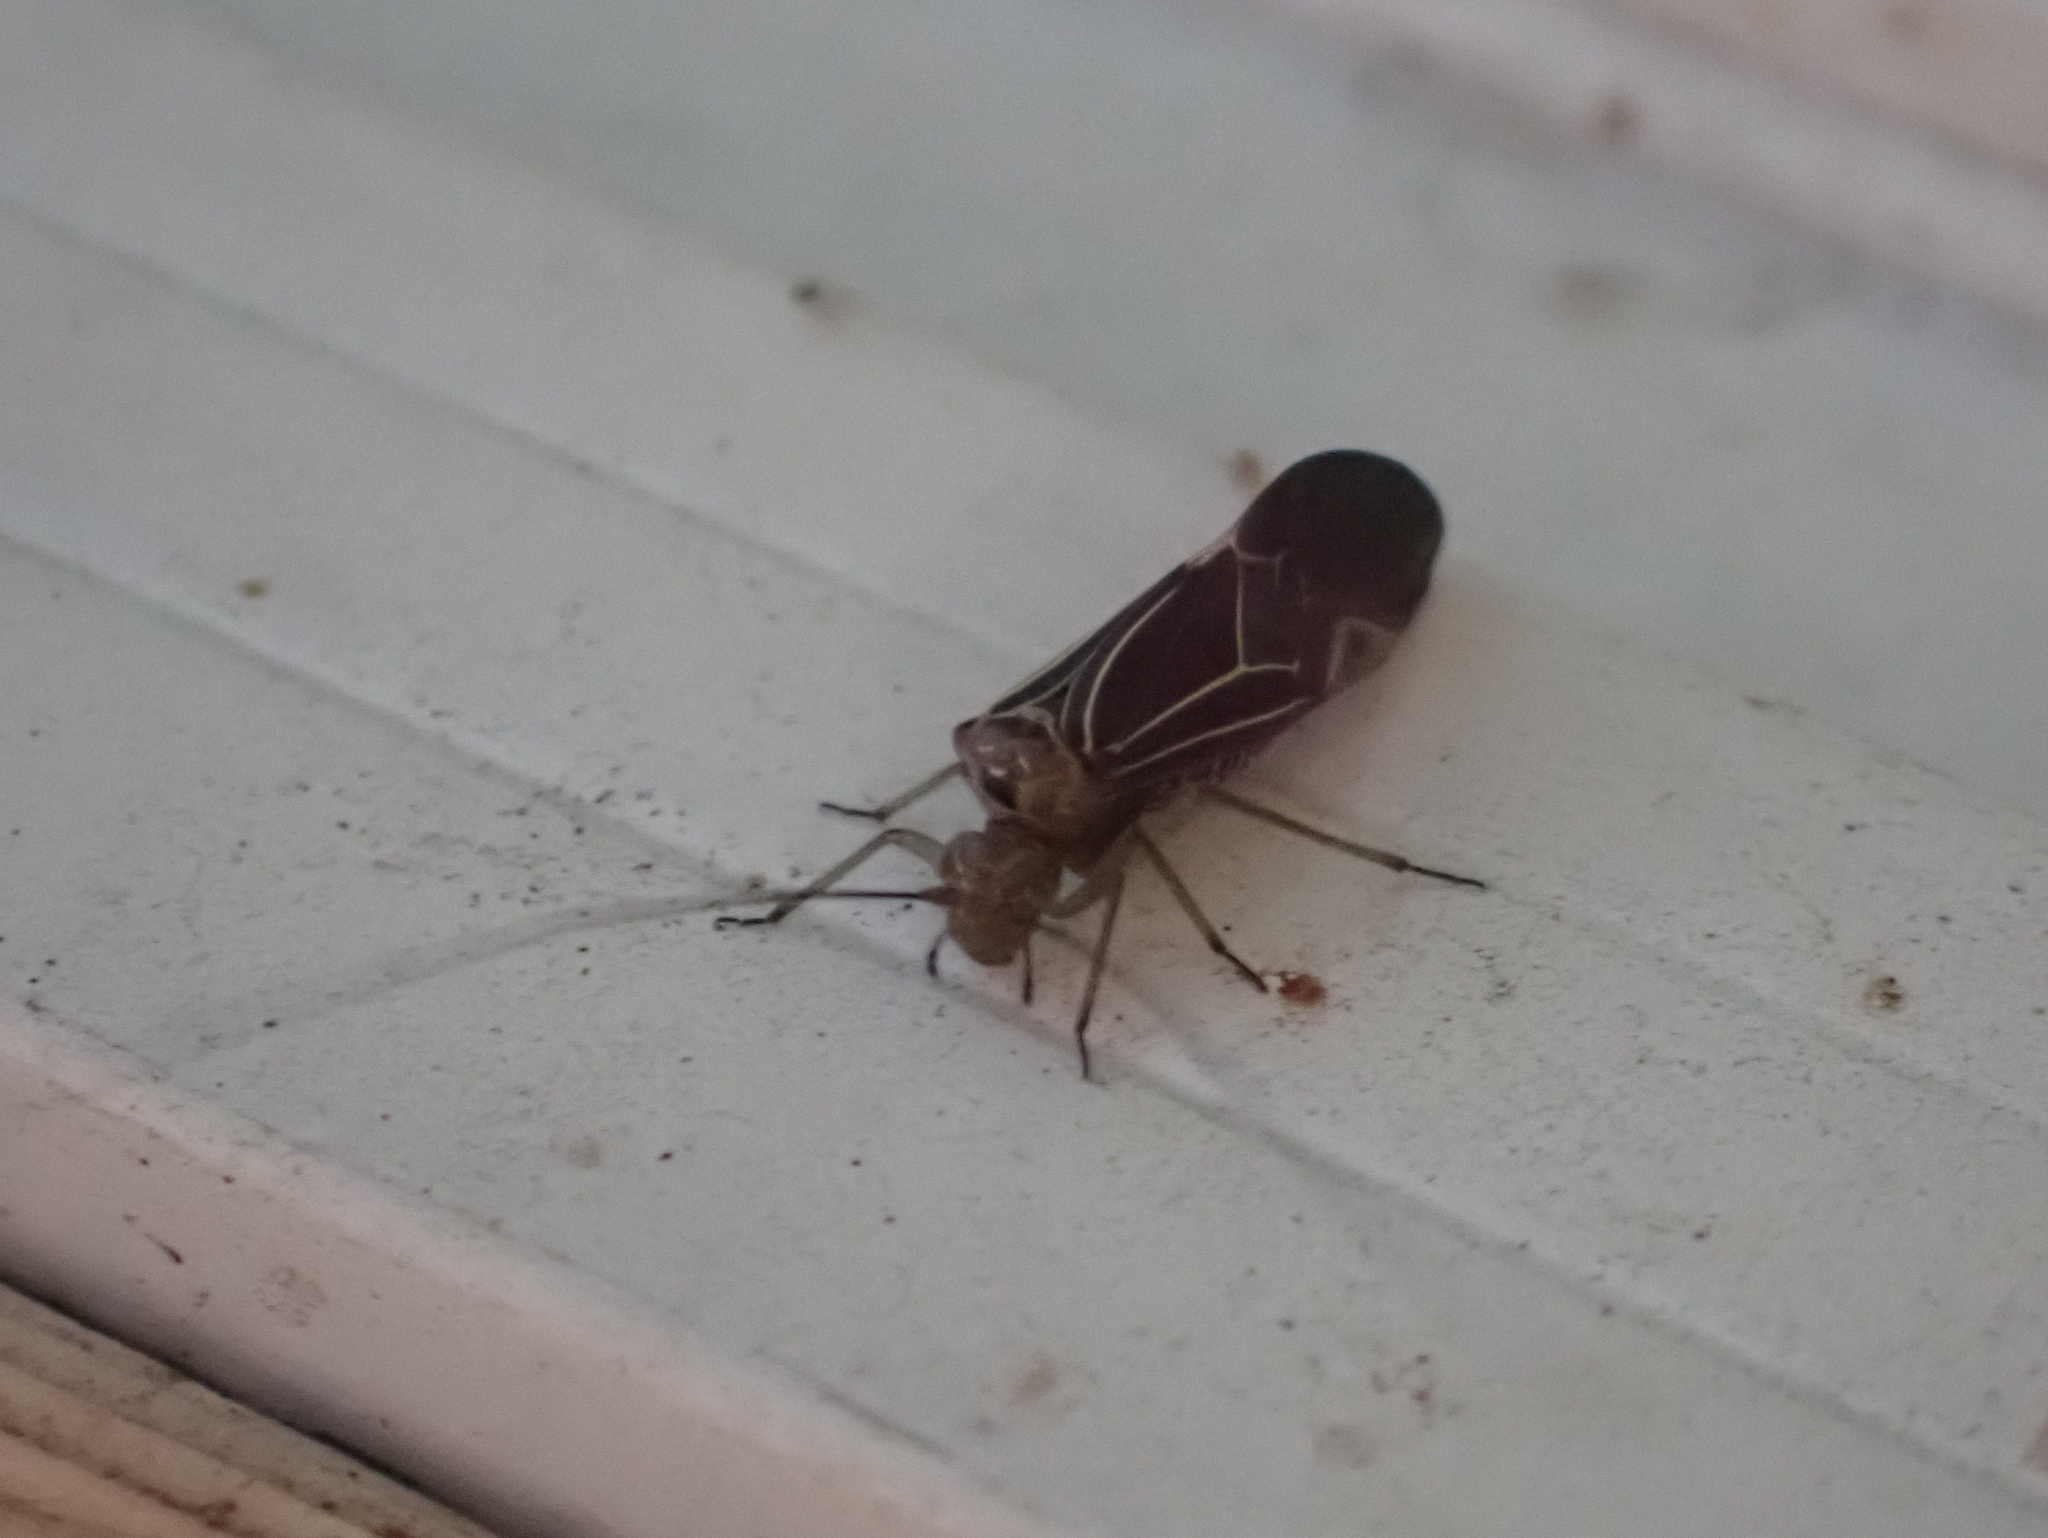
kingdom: Animalia
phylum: Arthropoda
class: Insecta
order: Psocodea
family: Psocidae
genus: Cerastipsocus
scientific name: Cerastipsocus venosus
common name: Tree cattle
